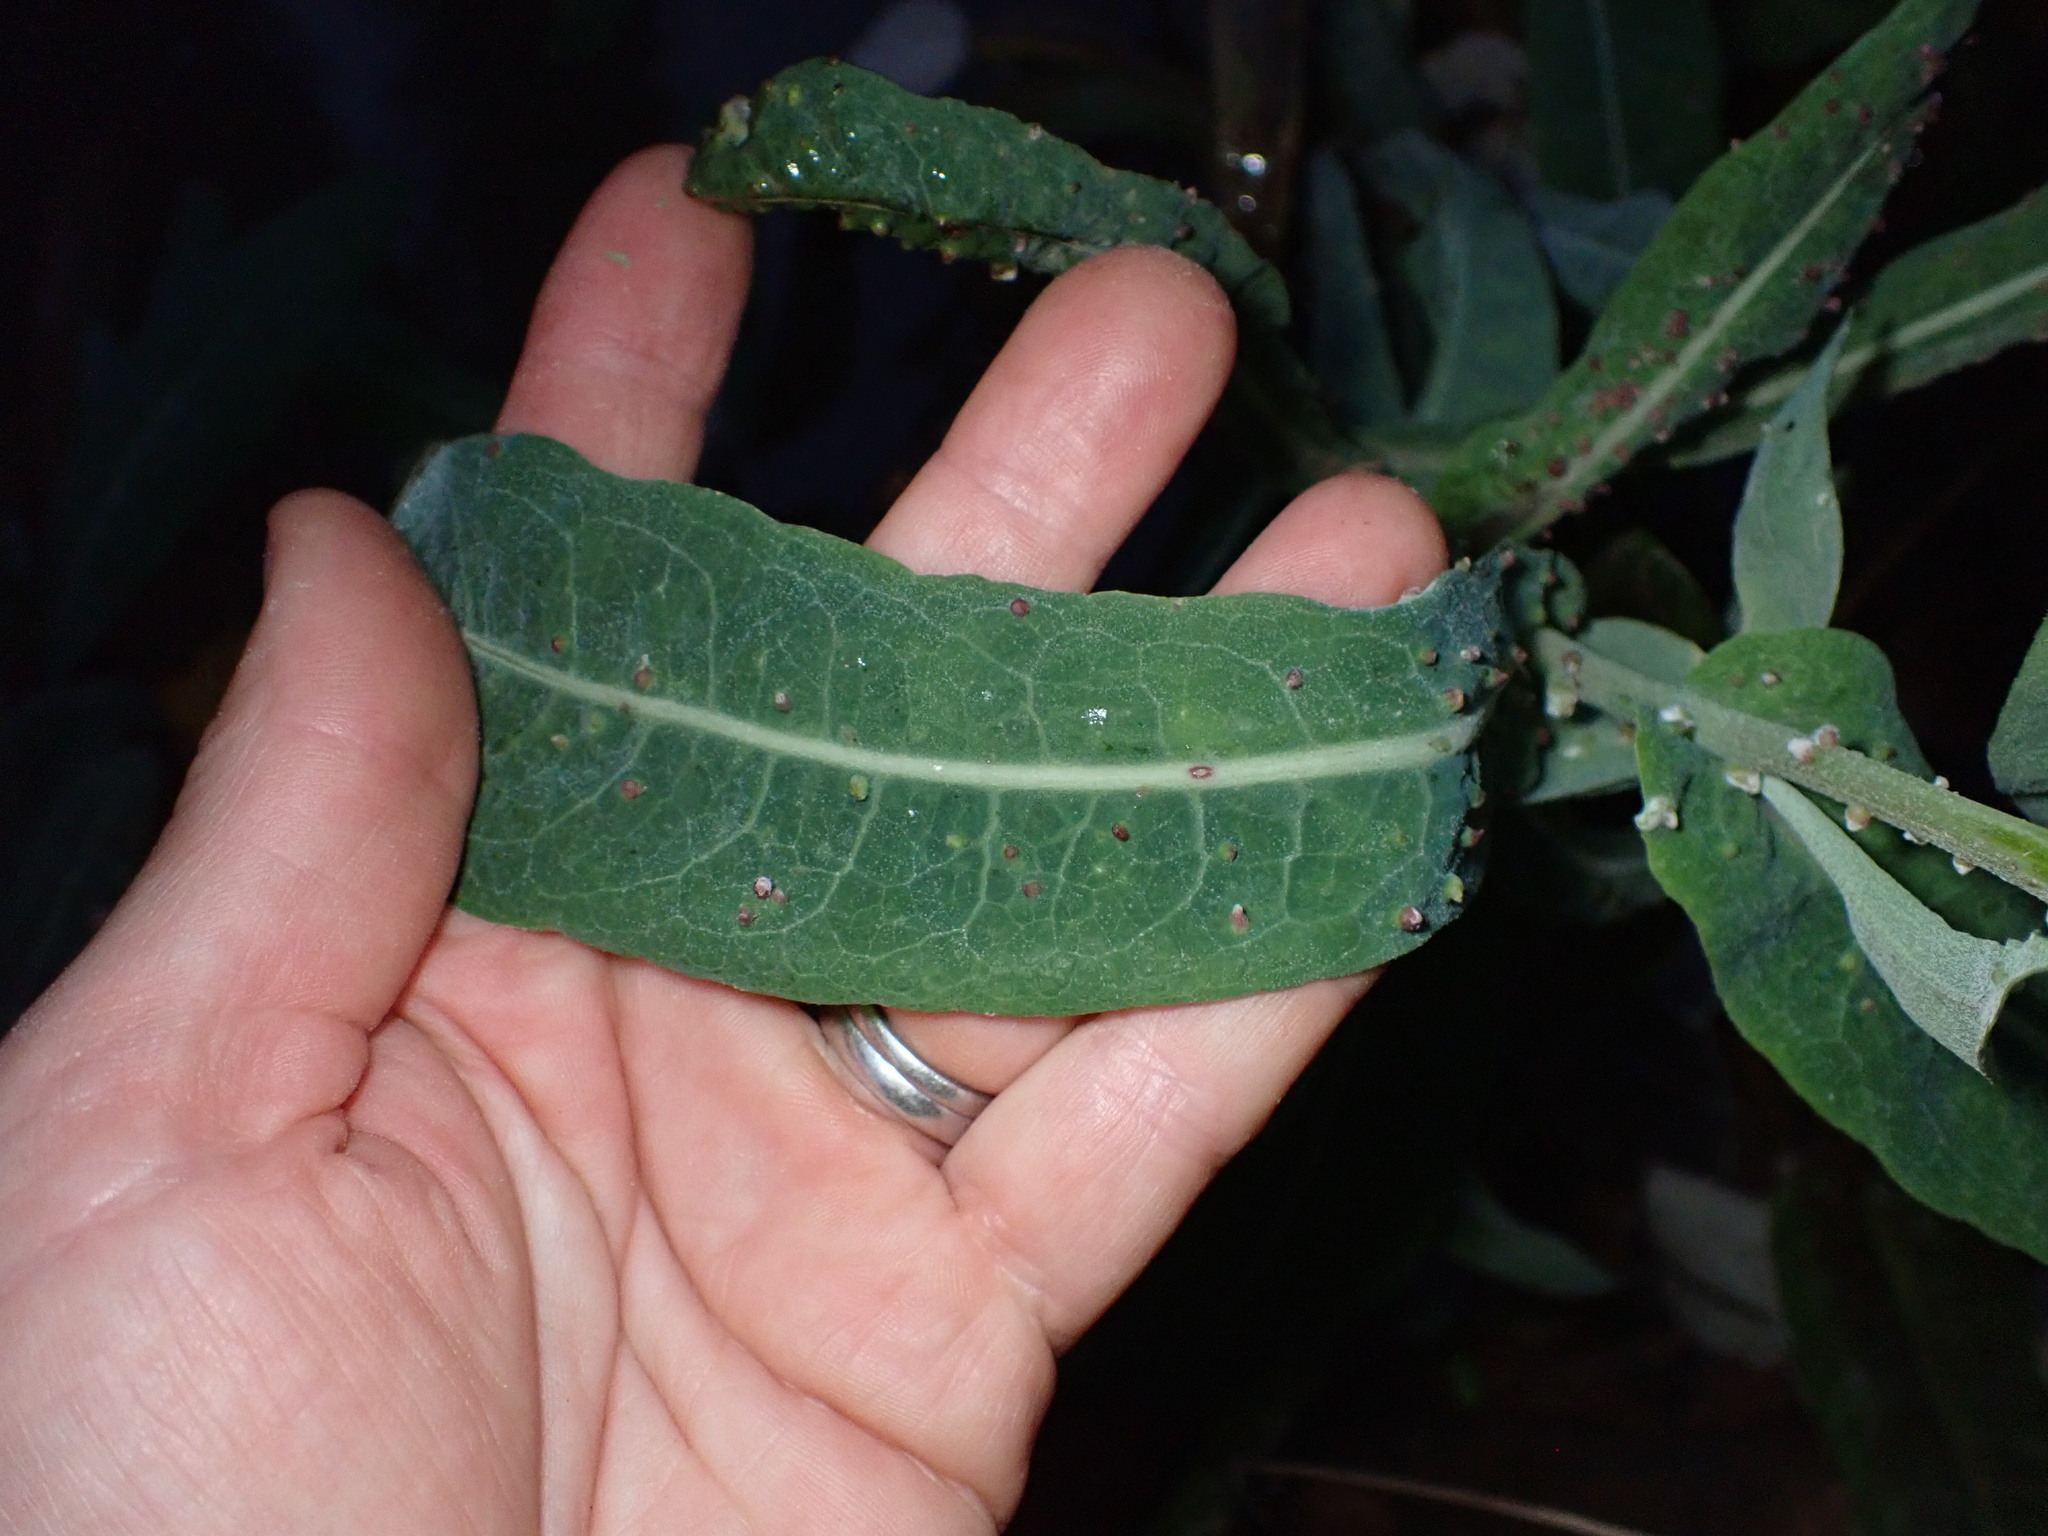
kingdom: Plantae
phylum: Tracheophyta
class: Magnoliopsida
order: Asterales
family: Asteraceae
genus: Sonchus
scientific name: Sonchus aquatilis
